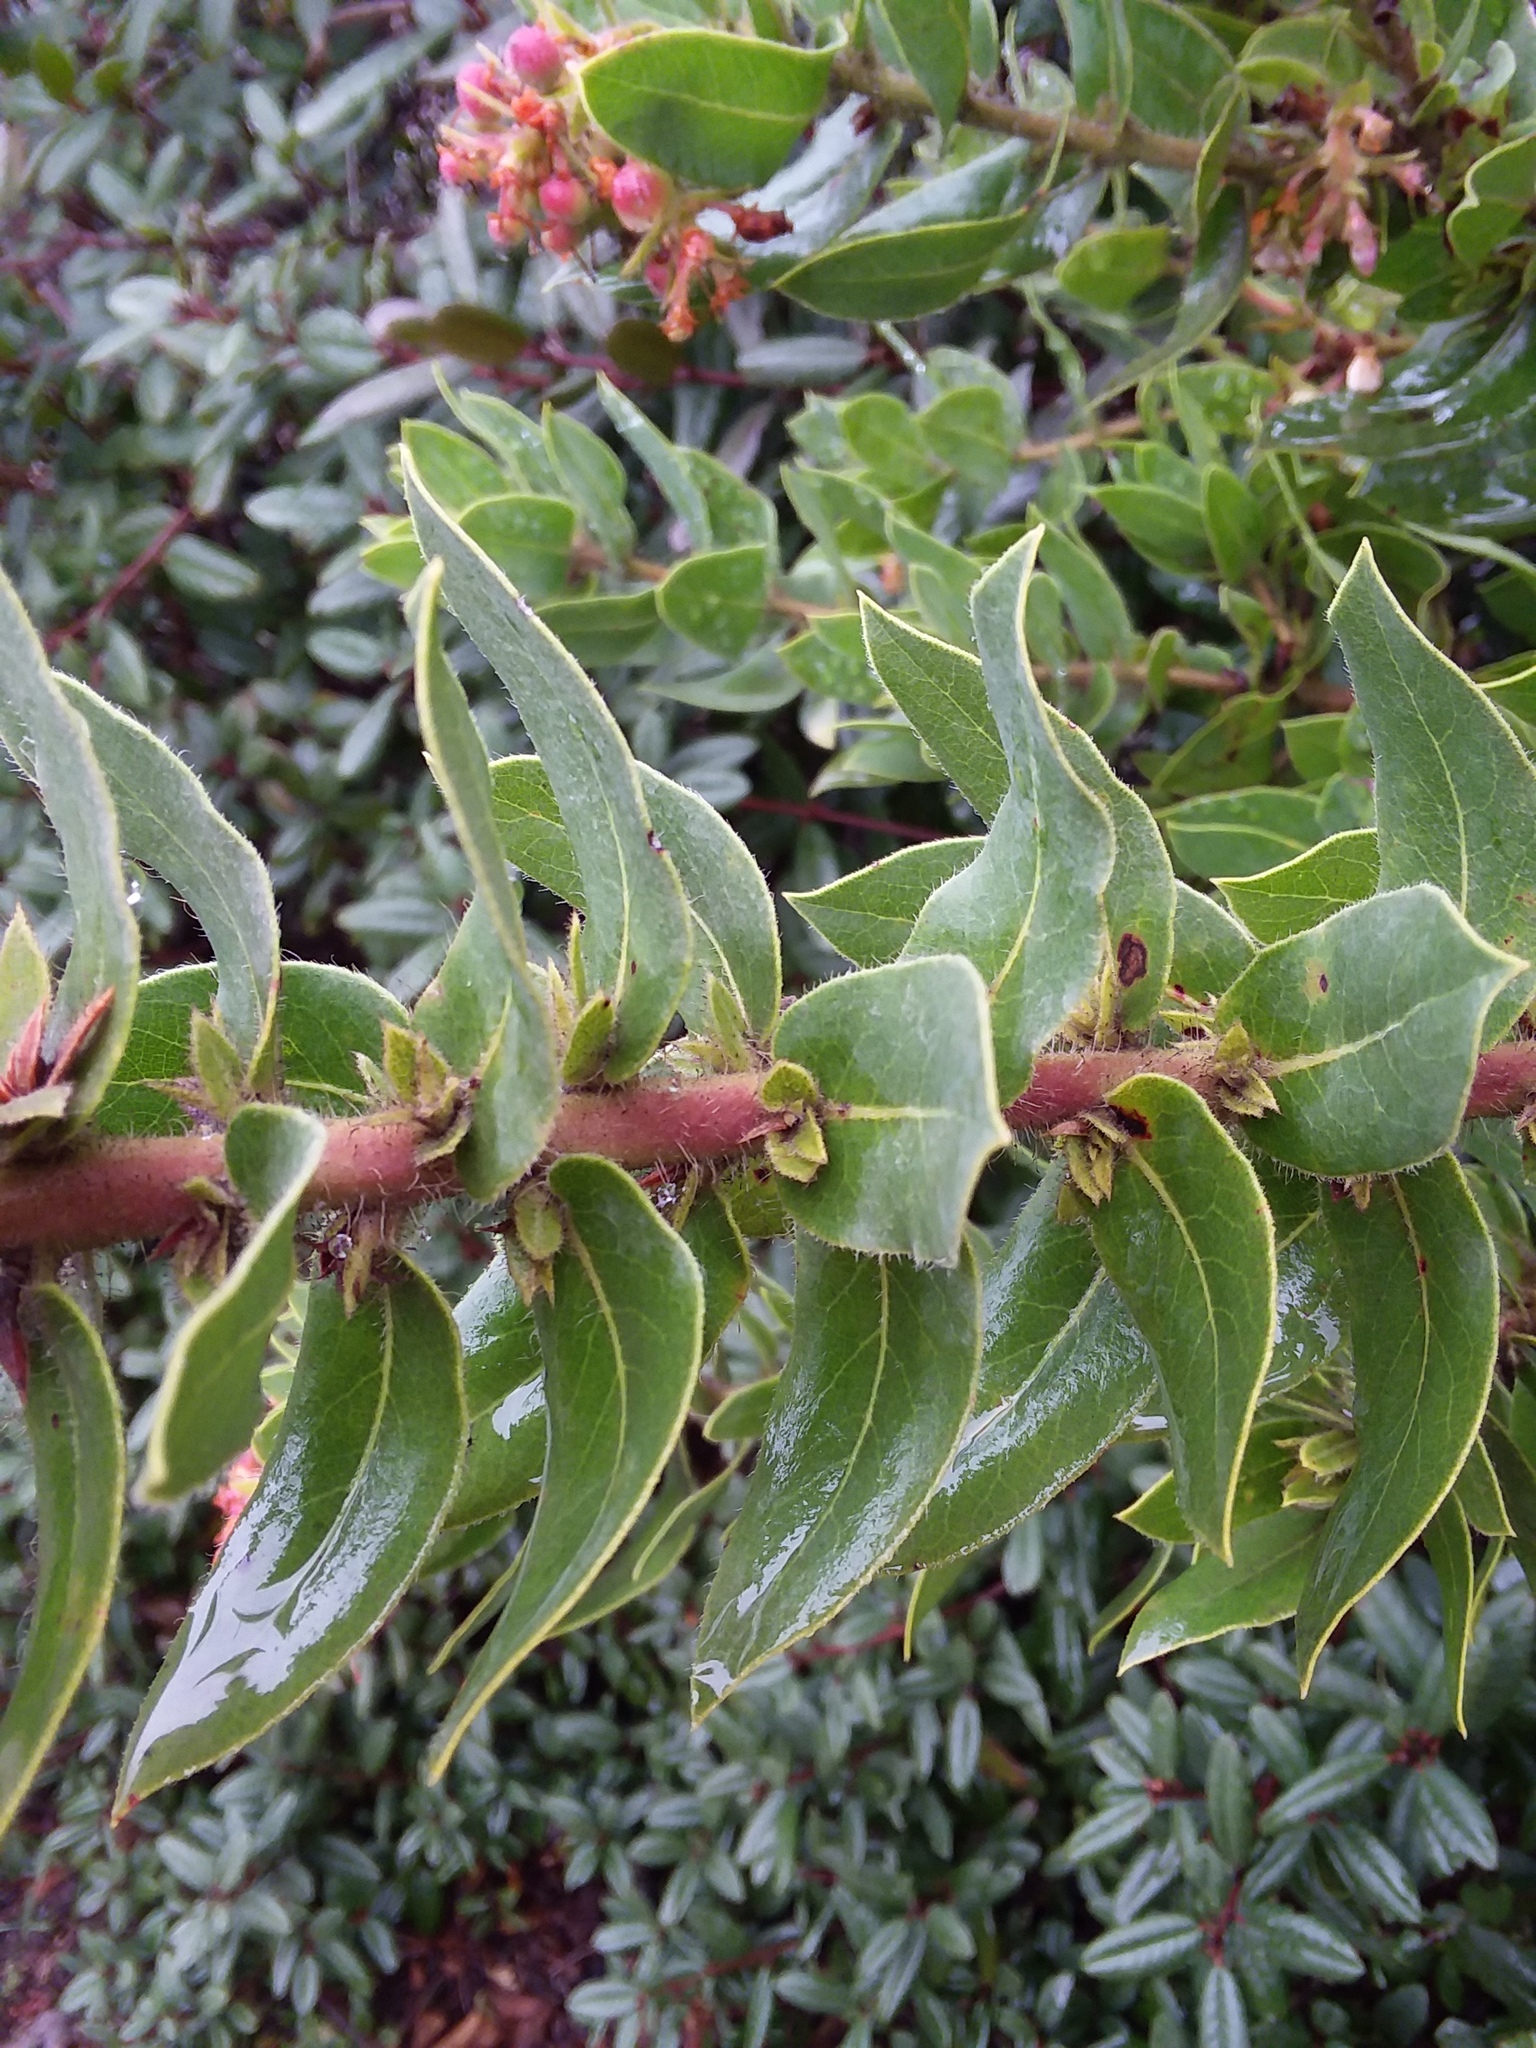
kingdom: Plantae
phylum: Tracheophyta
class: Magnoliopsida
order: Ericales
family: Ericaceae
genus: Arctostaphylos
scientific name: Arctostaphylos montaraensis
